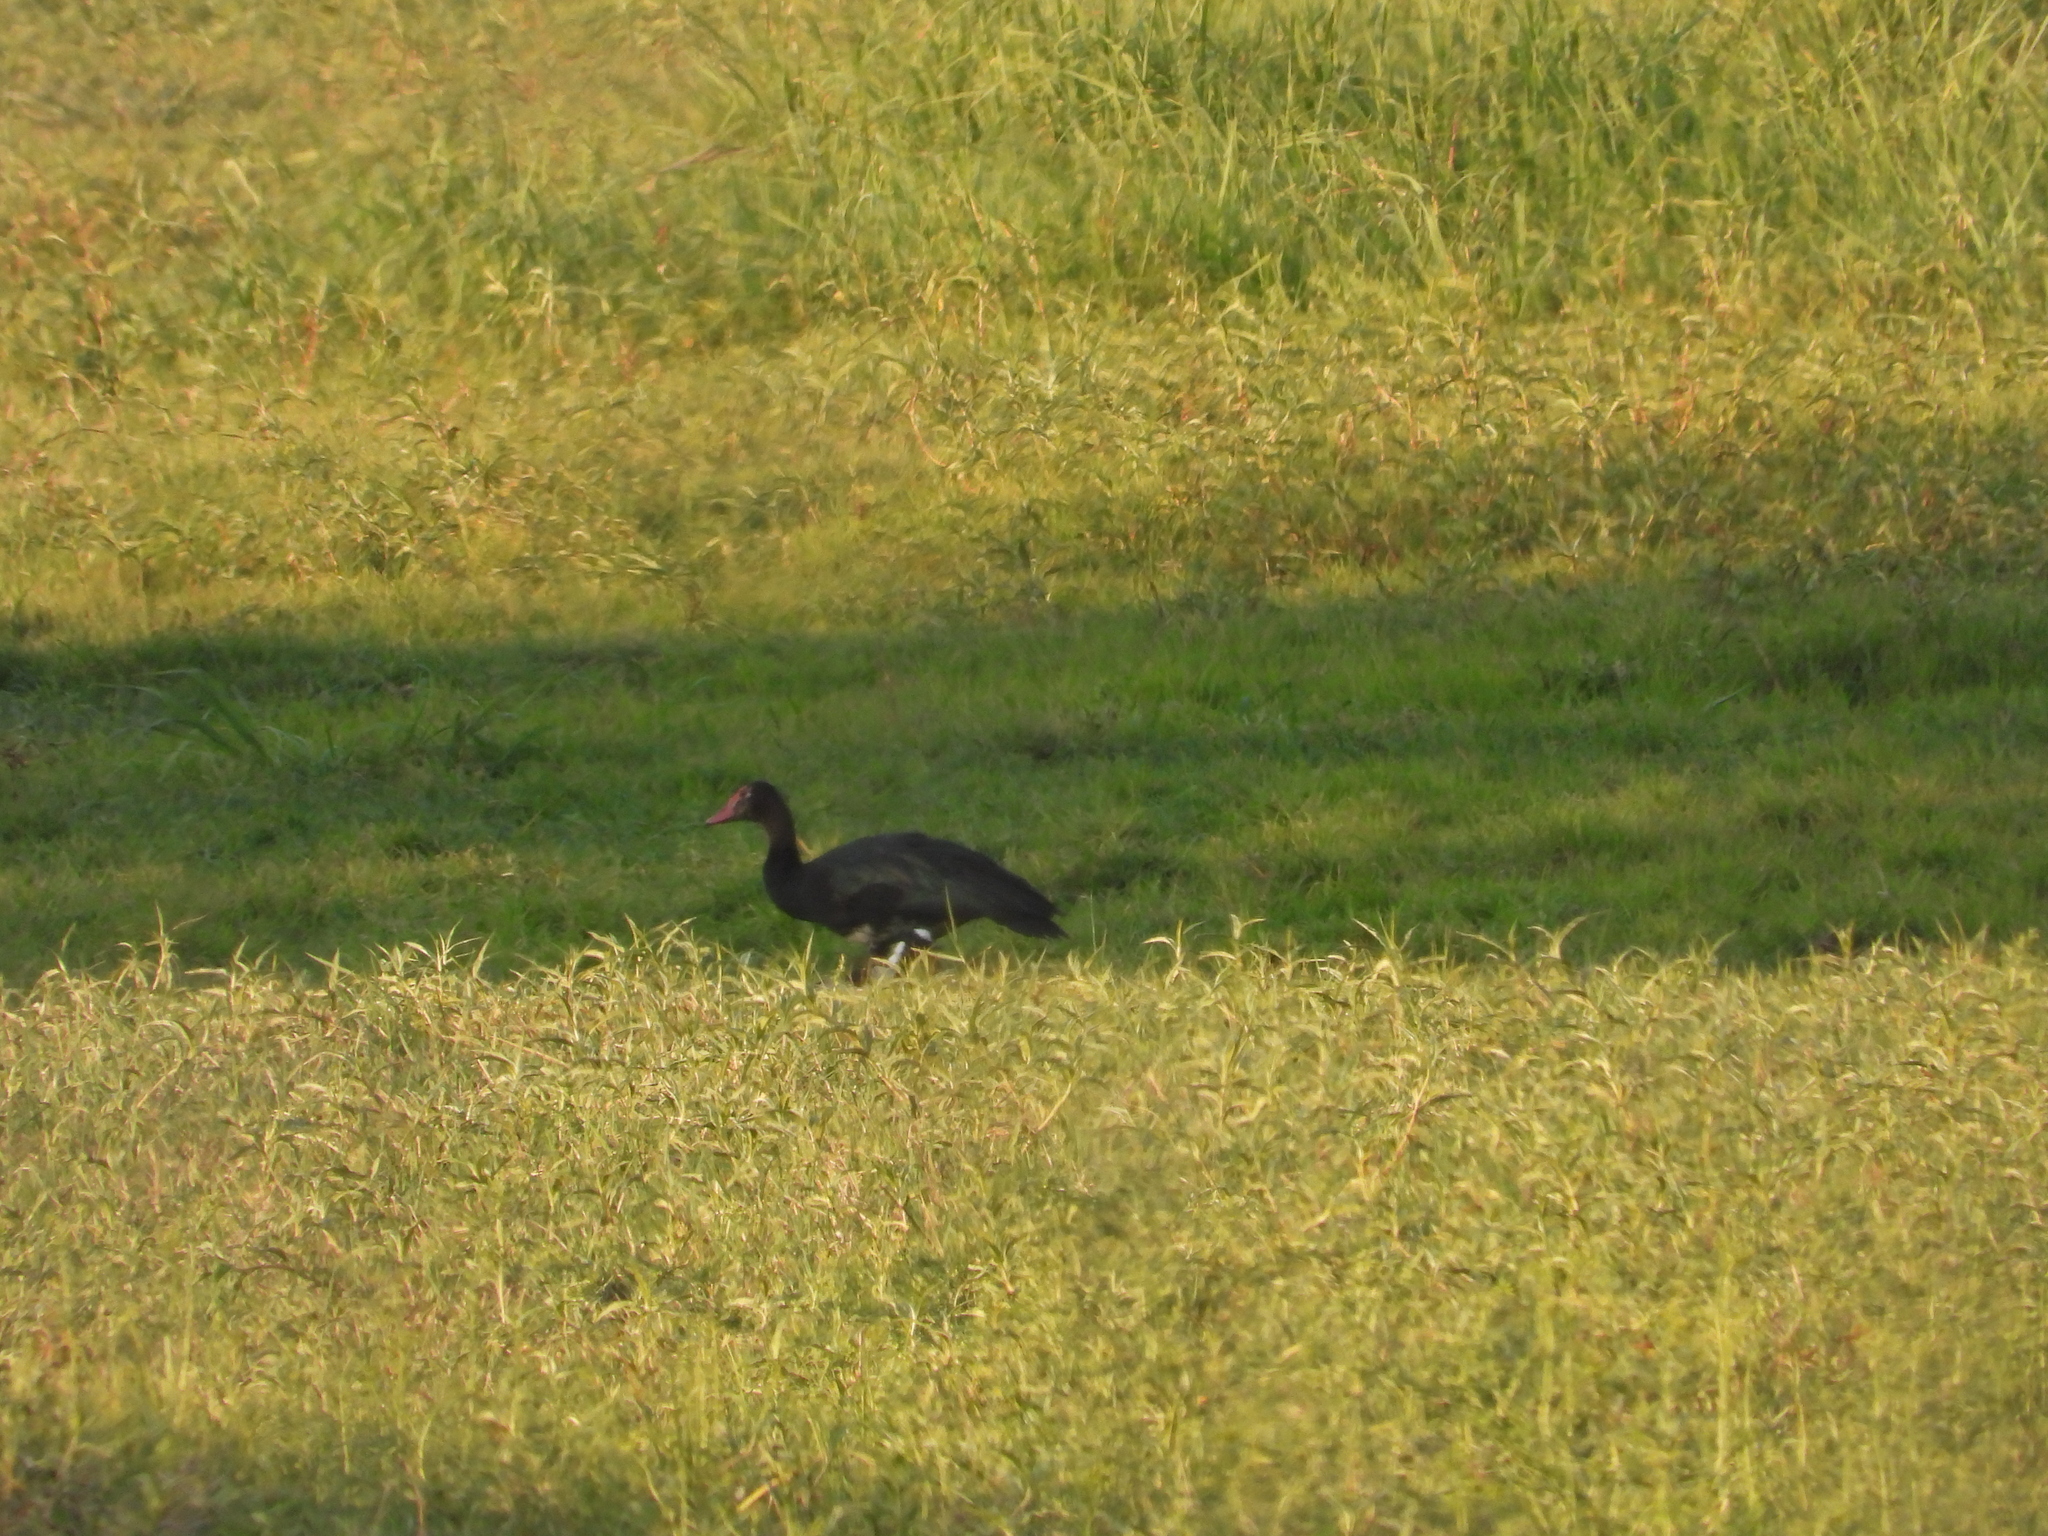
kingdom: Animalia
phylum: Chordata
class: Aves
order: Anseriformes
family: Anatidae
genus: Plectropterus
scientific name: Plectropterus gambensis
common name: Spur-winged goose
